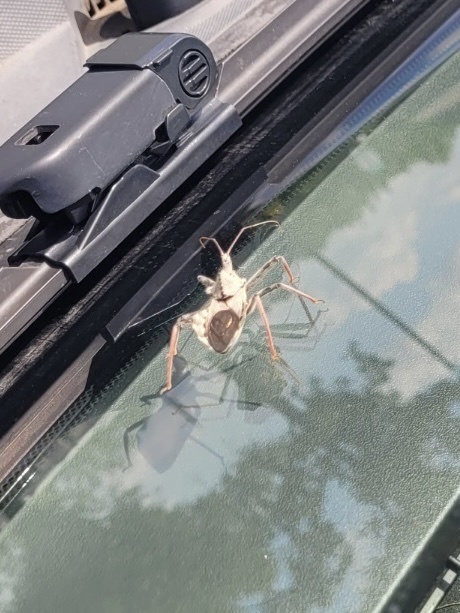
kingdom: Animalia
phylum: Arthropoda
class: Insecta
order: Hemiptera
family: Reduviidae
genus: Arilus
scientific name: Arilus cristatus
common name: North american wheel bug
